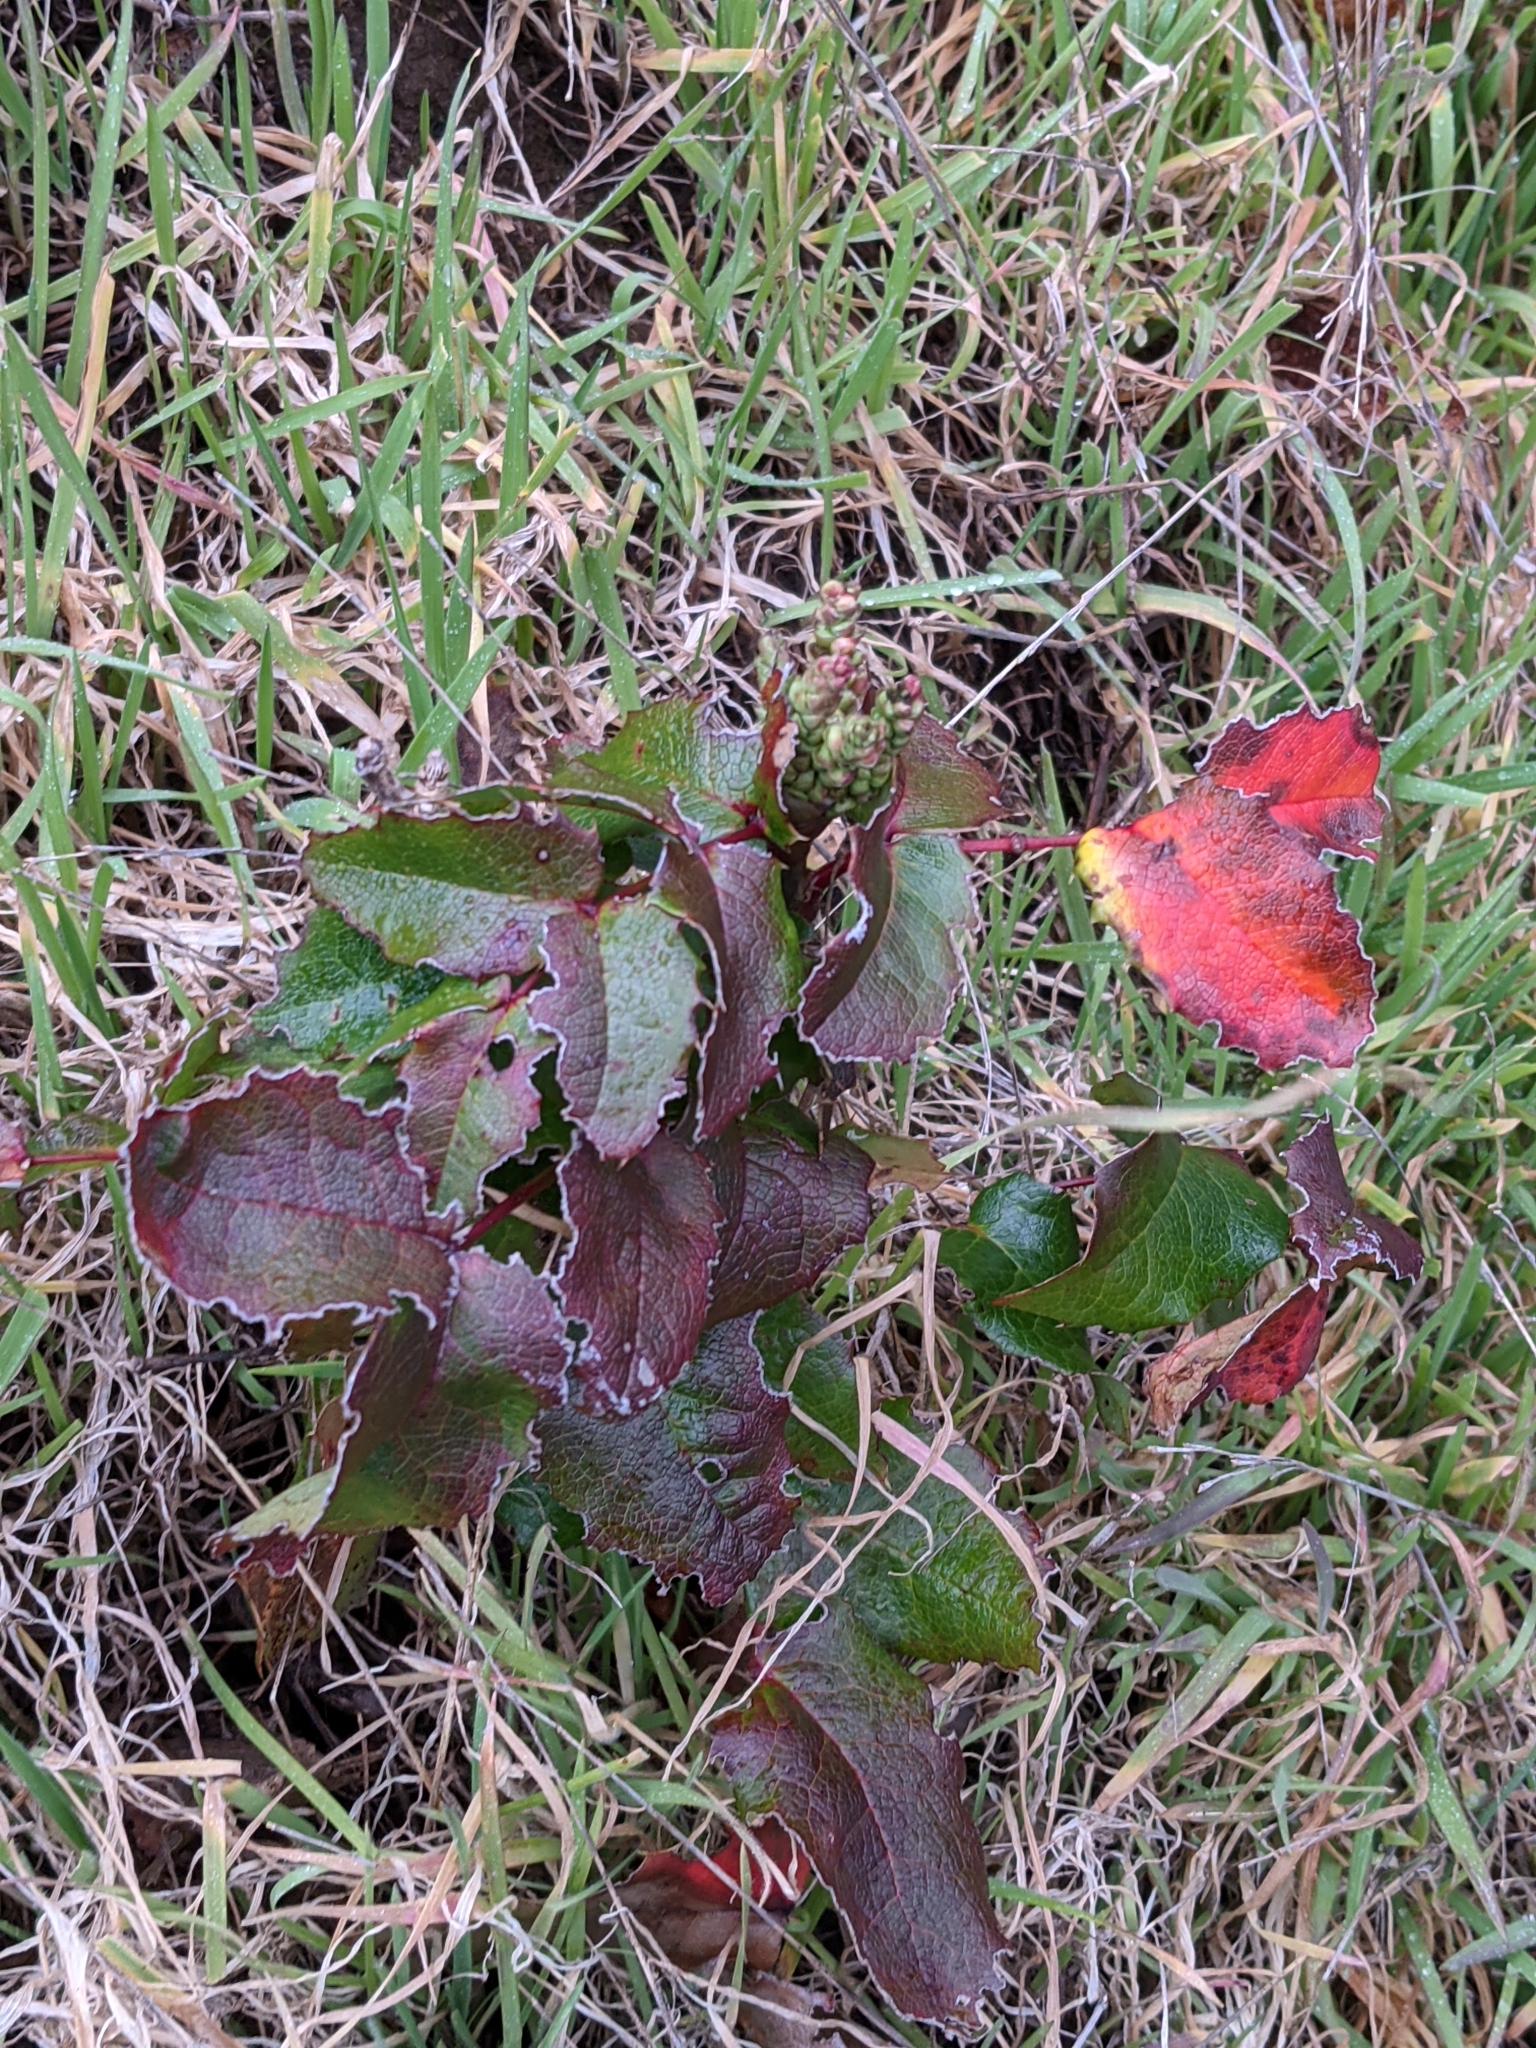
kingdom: Plantae
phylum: Tracheophyta
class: Magnoliopsida
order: Ranunculales
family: Berberidaceae
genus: Mahonia
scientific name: Mahonia aquifolium
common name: Oregon-grape
